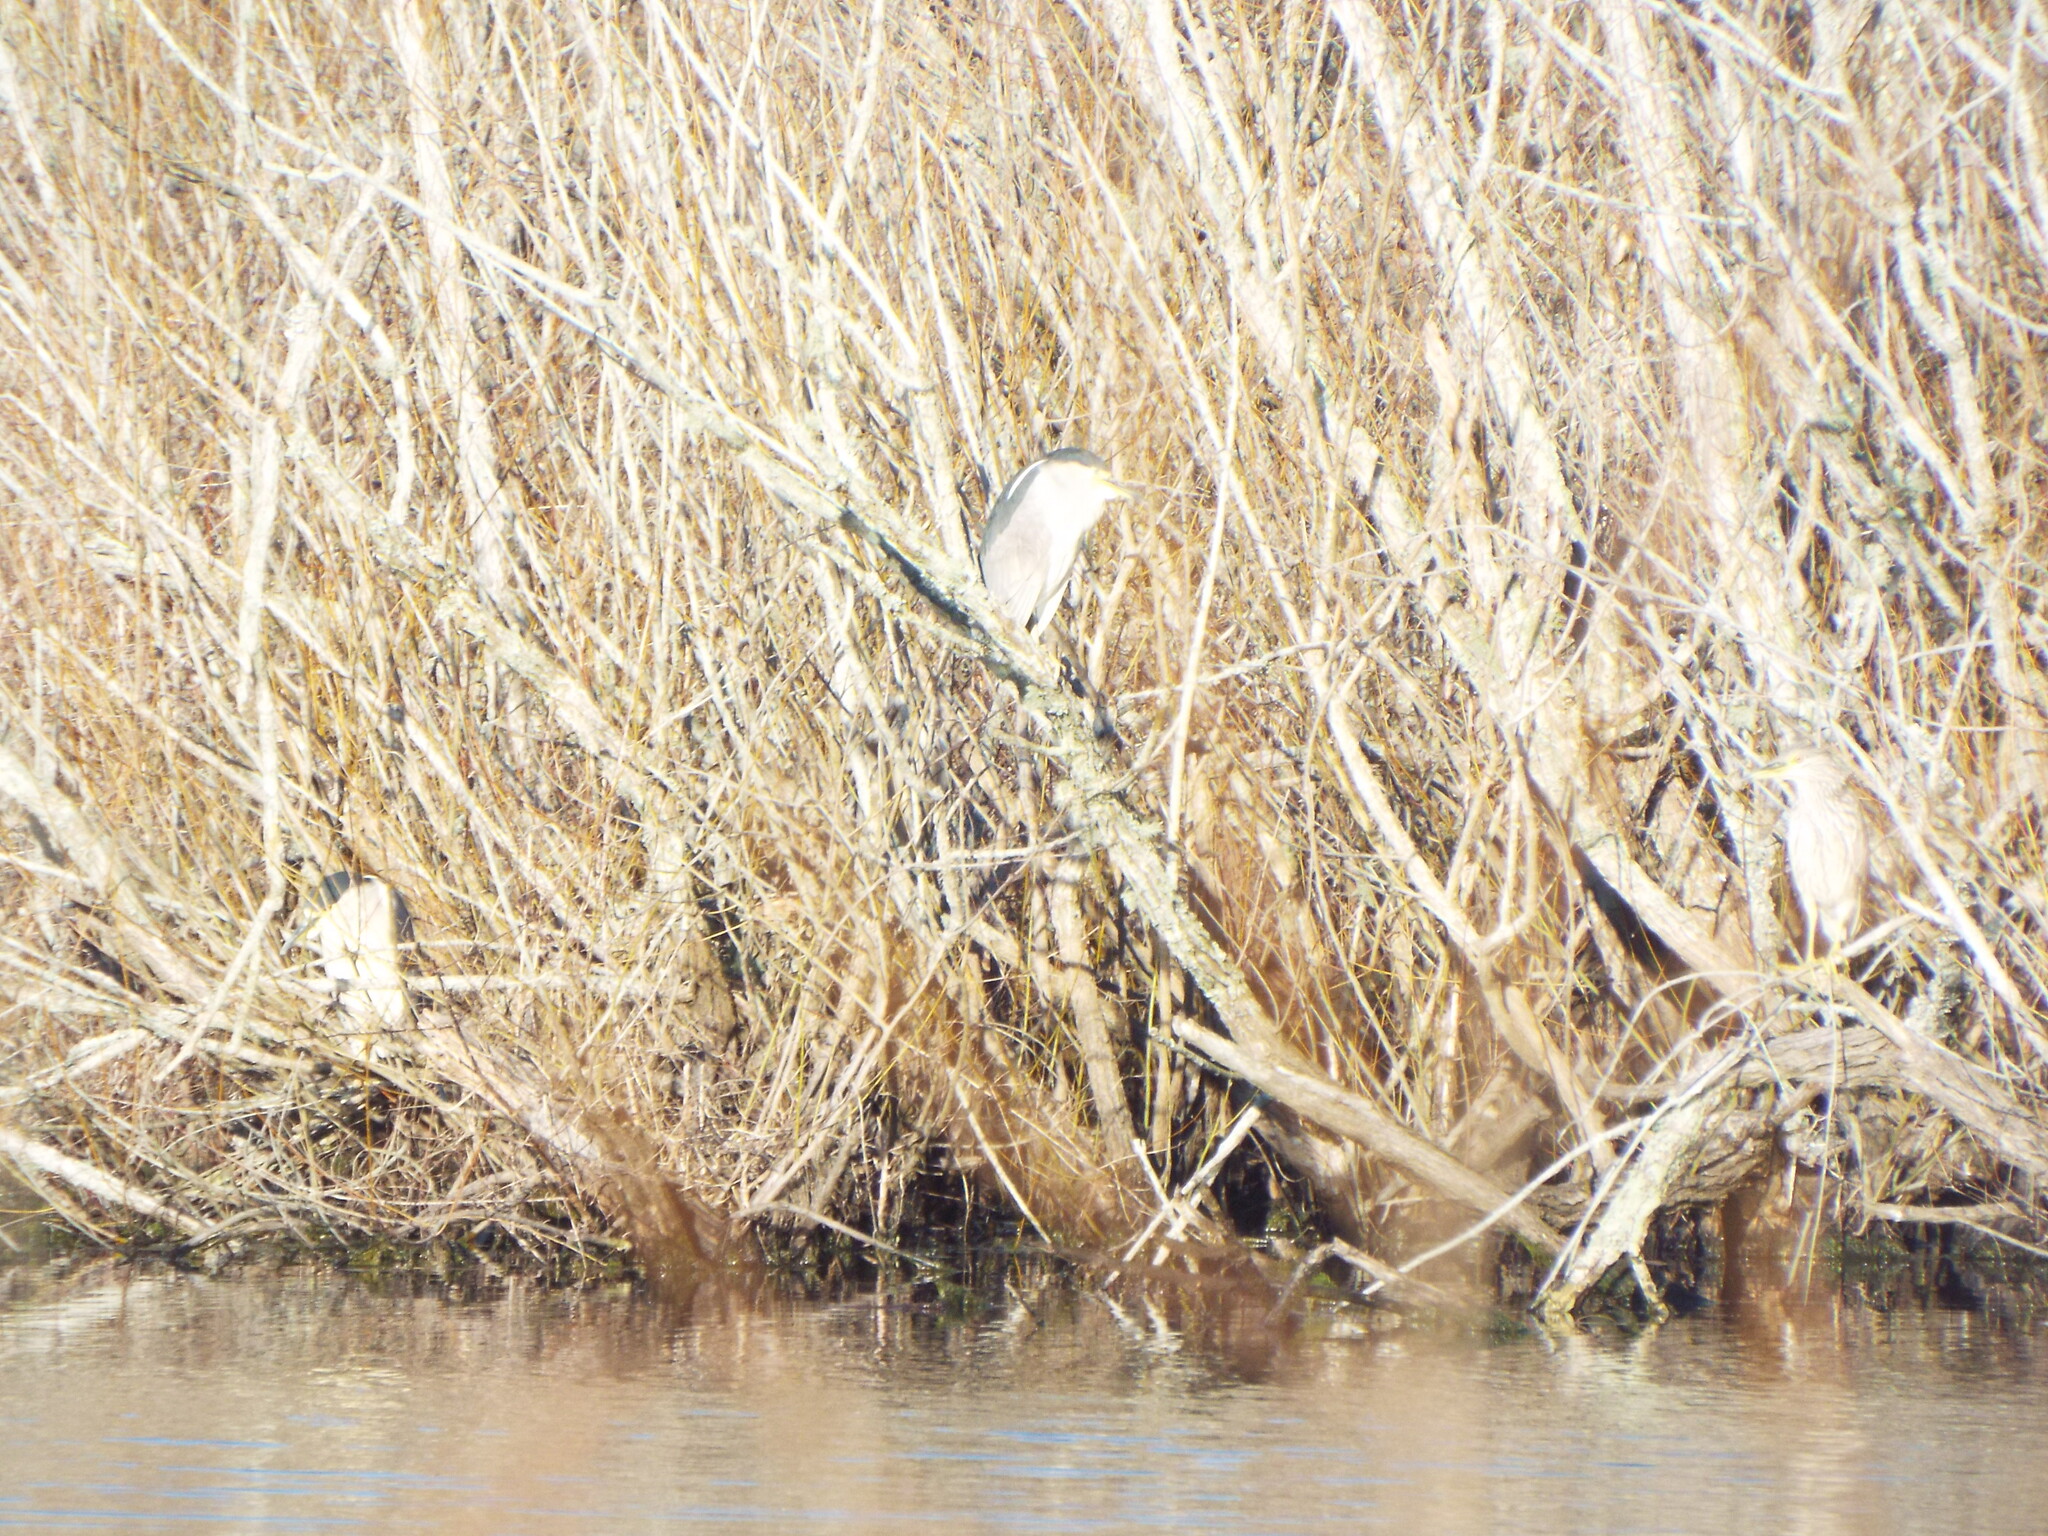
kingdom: Animalia
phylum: Chordata
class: Aves
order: Pelecaniformes
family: Ardeidae
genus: Nycticorax
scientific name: Nycticorax nycticorax
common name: Black-crowned night heron
